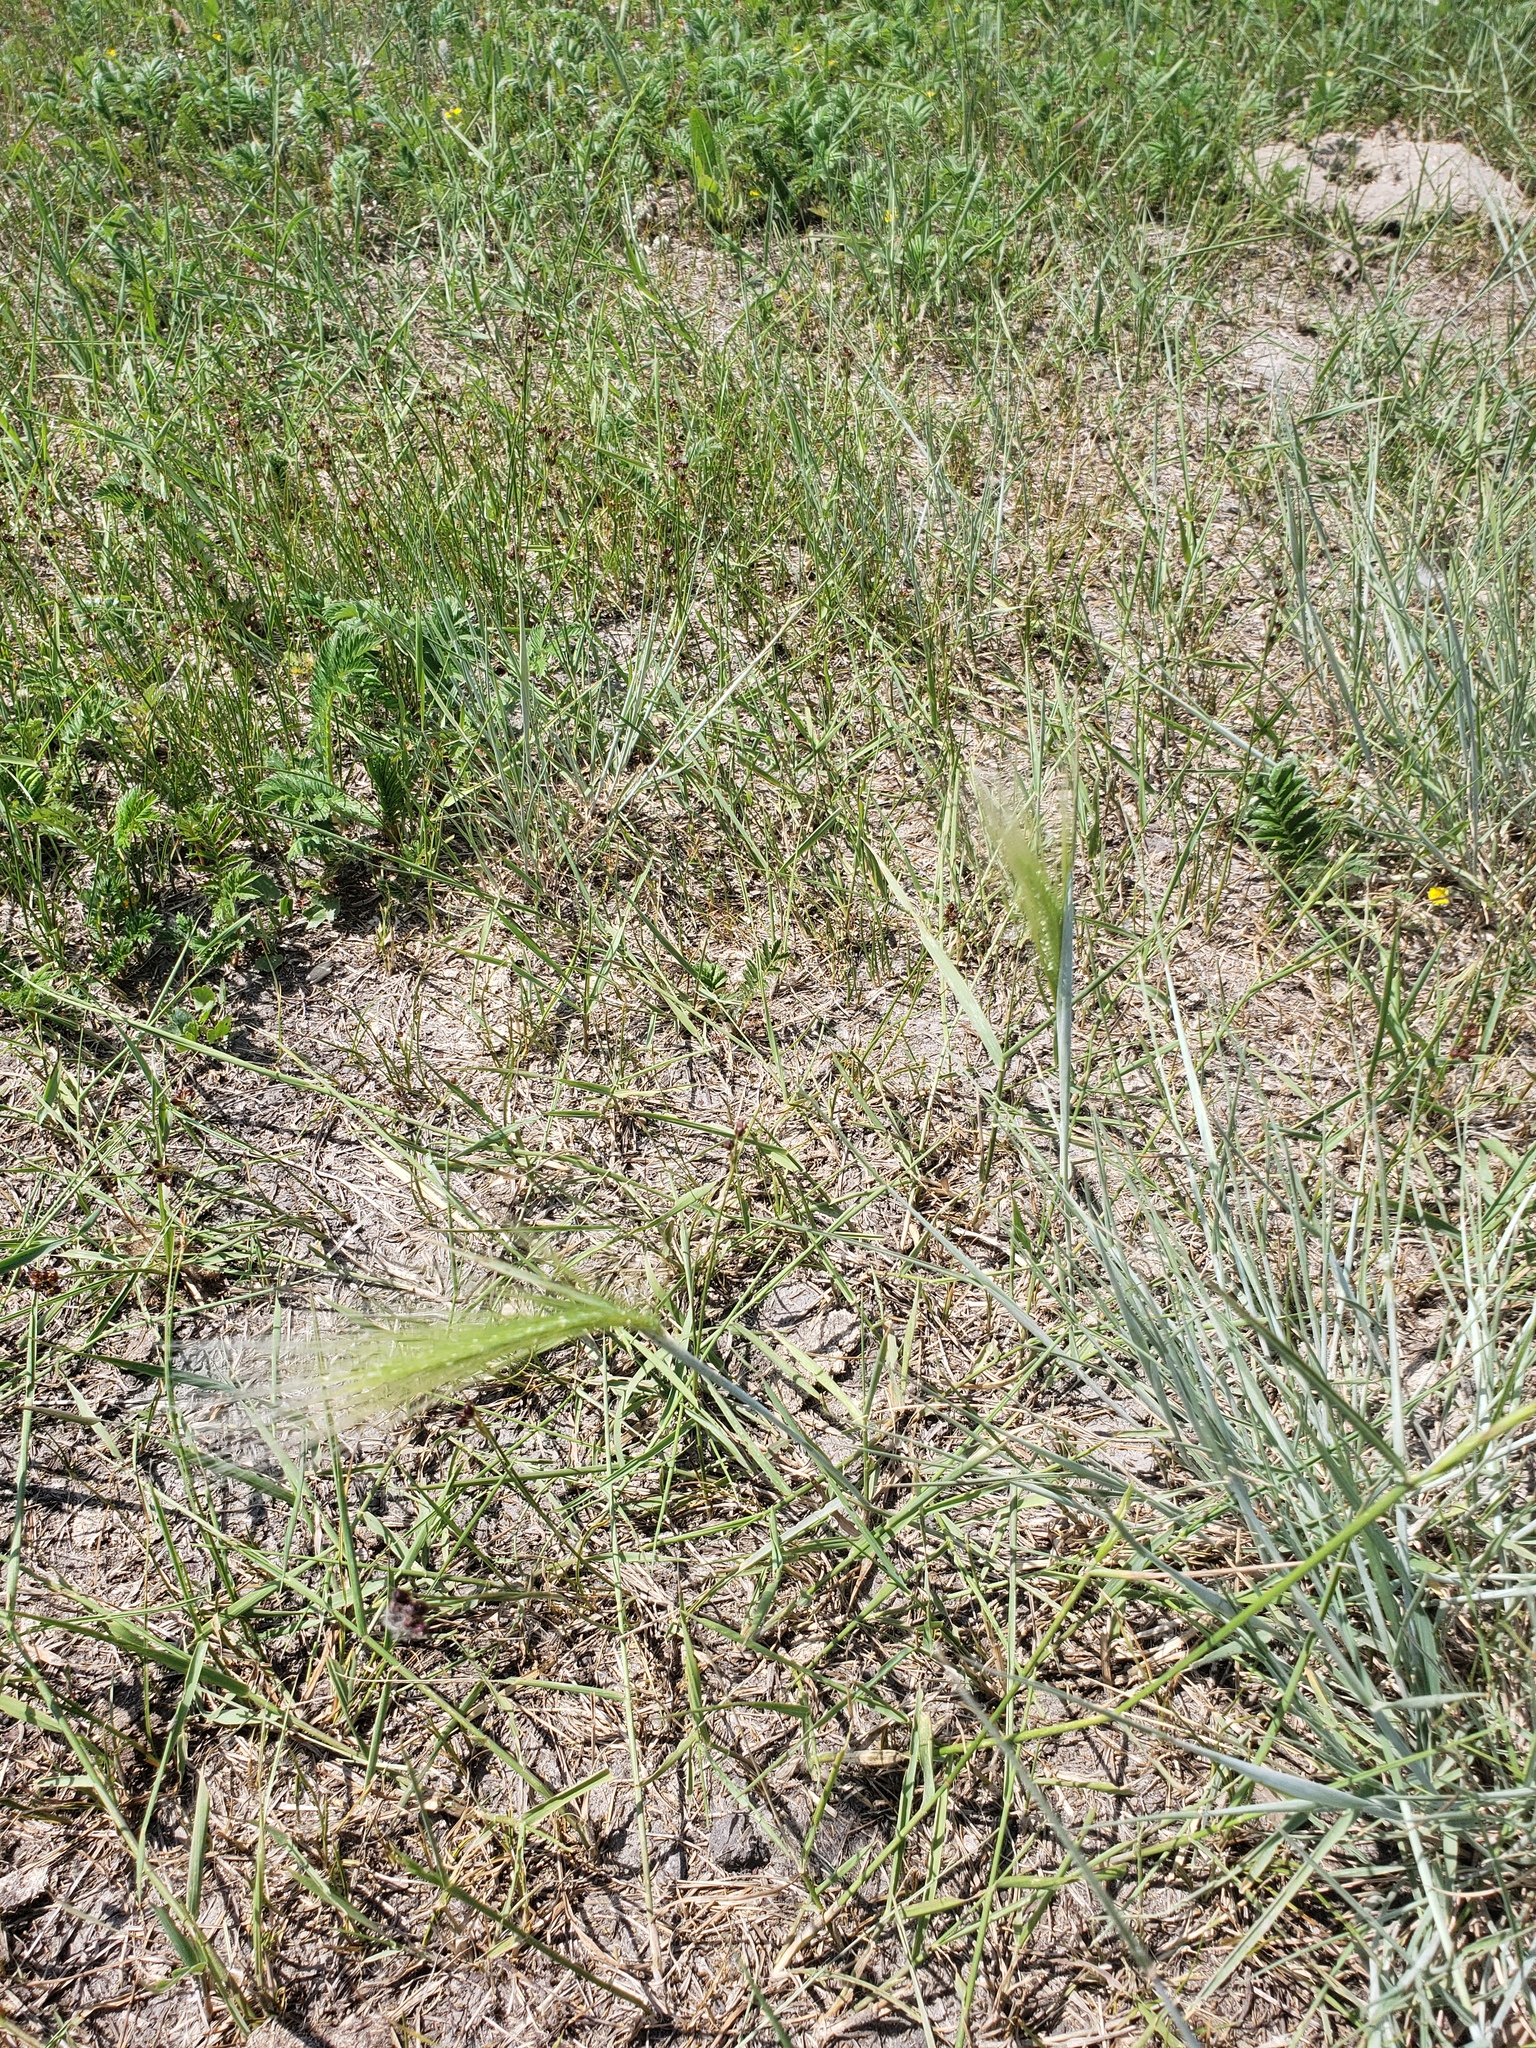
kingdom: Plantae
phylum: Tracheophyta
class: Liliopsida
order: Poales
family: Poaceae
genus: Hordeum
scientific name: Hordeum jubatum
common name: Foxtail barley
